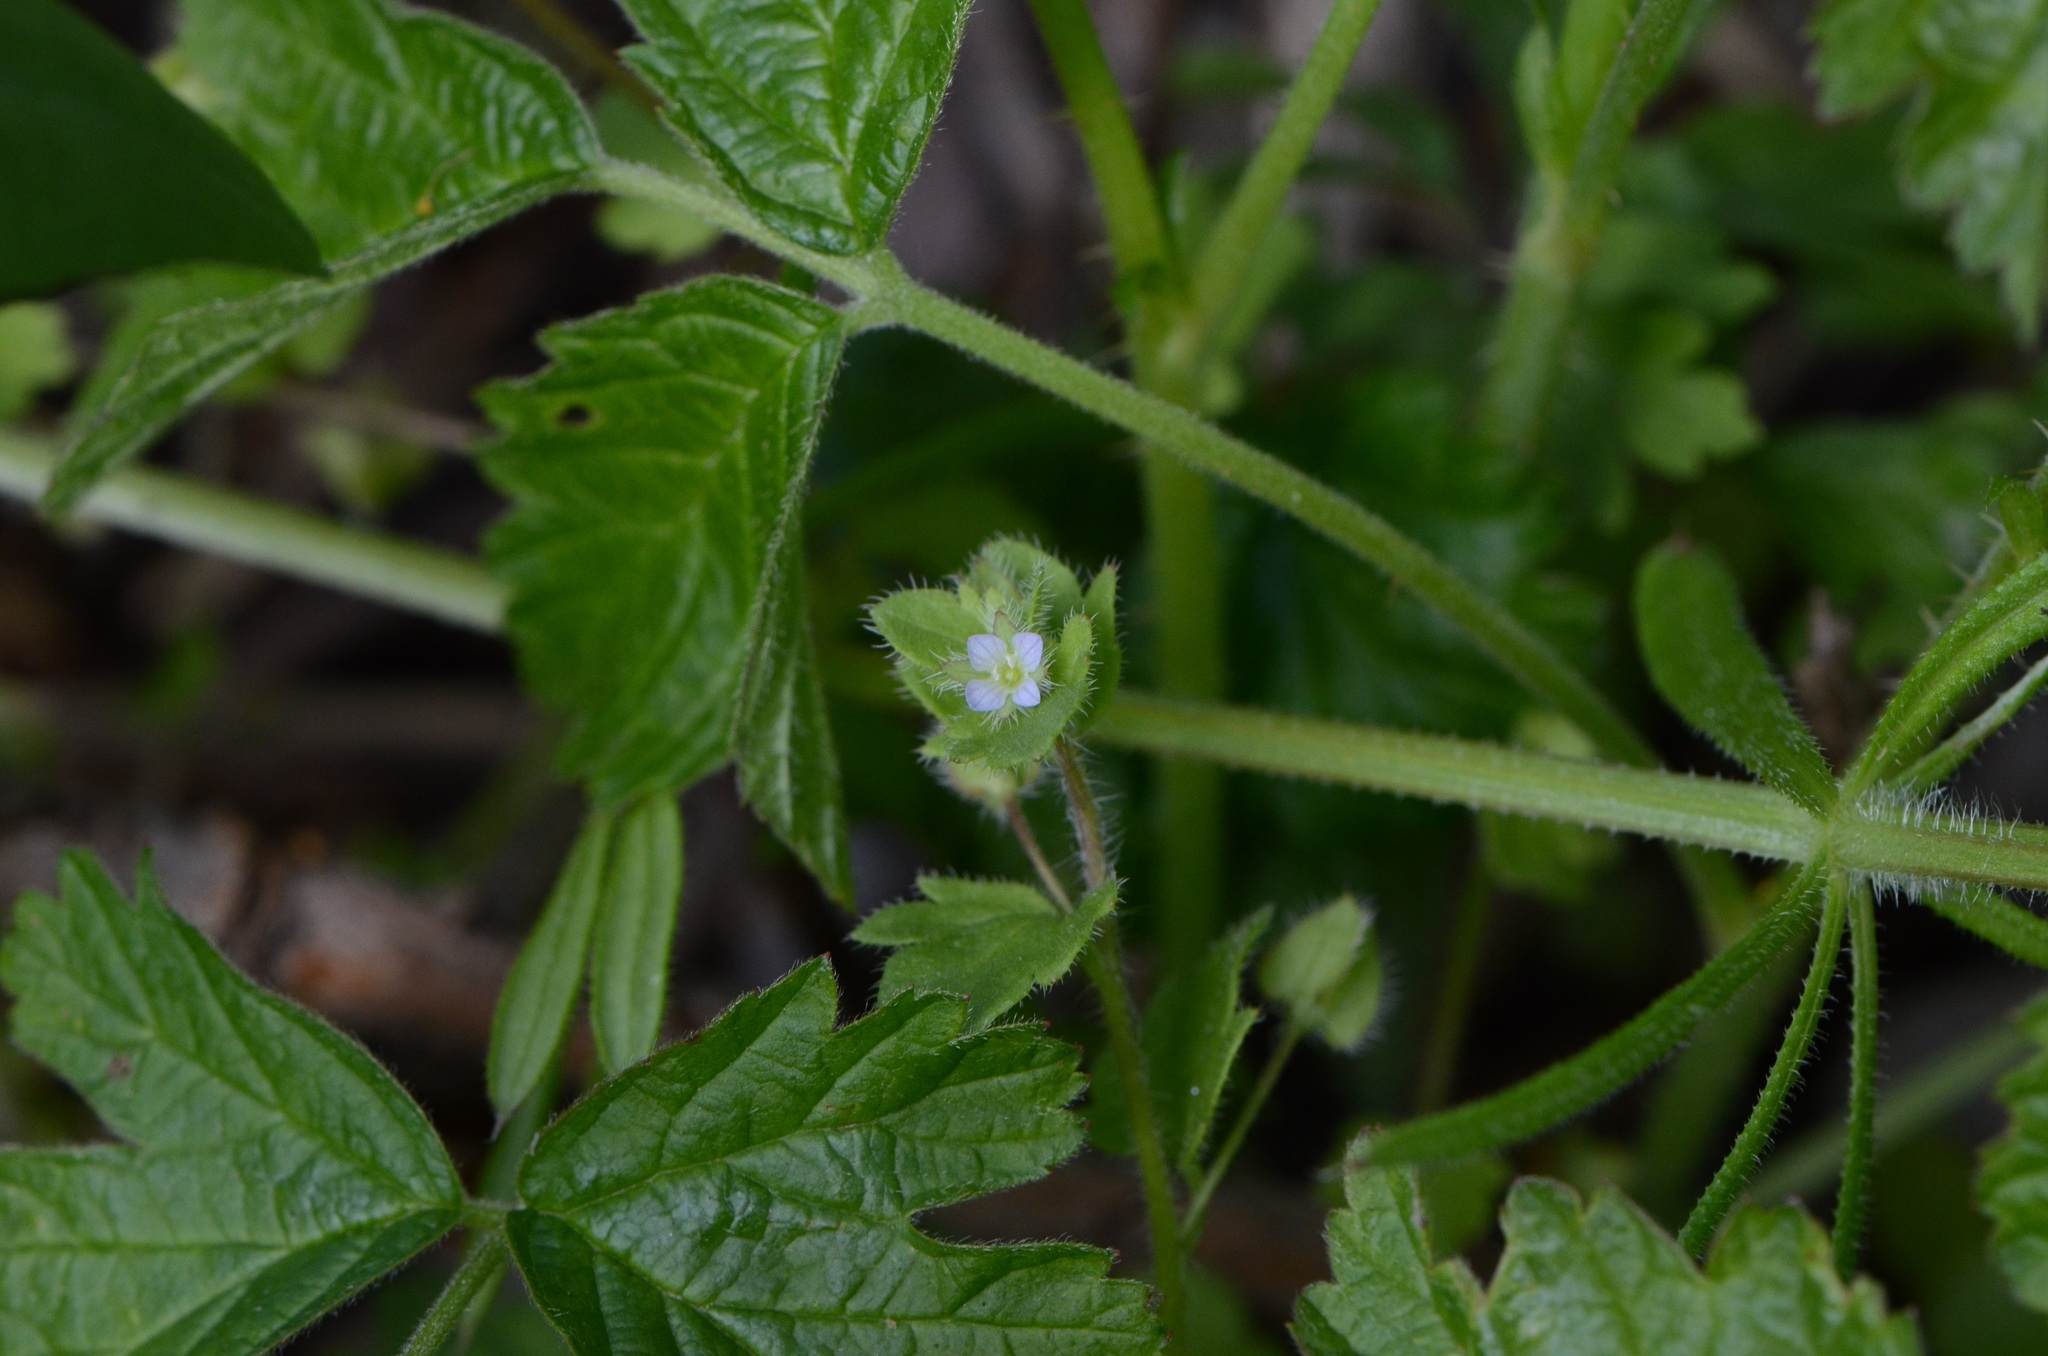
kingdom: Plantae
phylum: Tracheophyta
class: Magnoliopsida
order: Lamiales
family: Plantaginaceae
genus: Veronica
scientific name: Veronica sublobata
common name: False ivy-leaved speedwell
